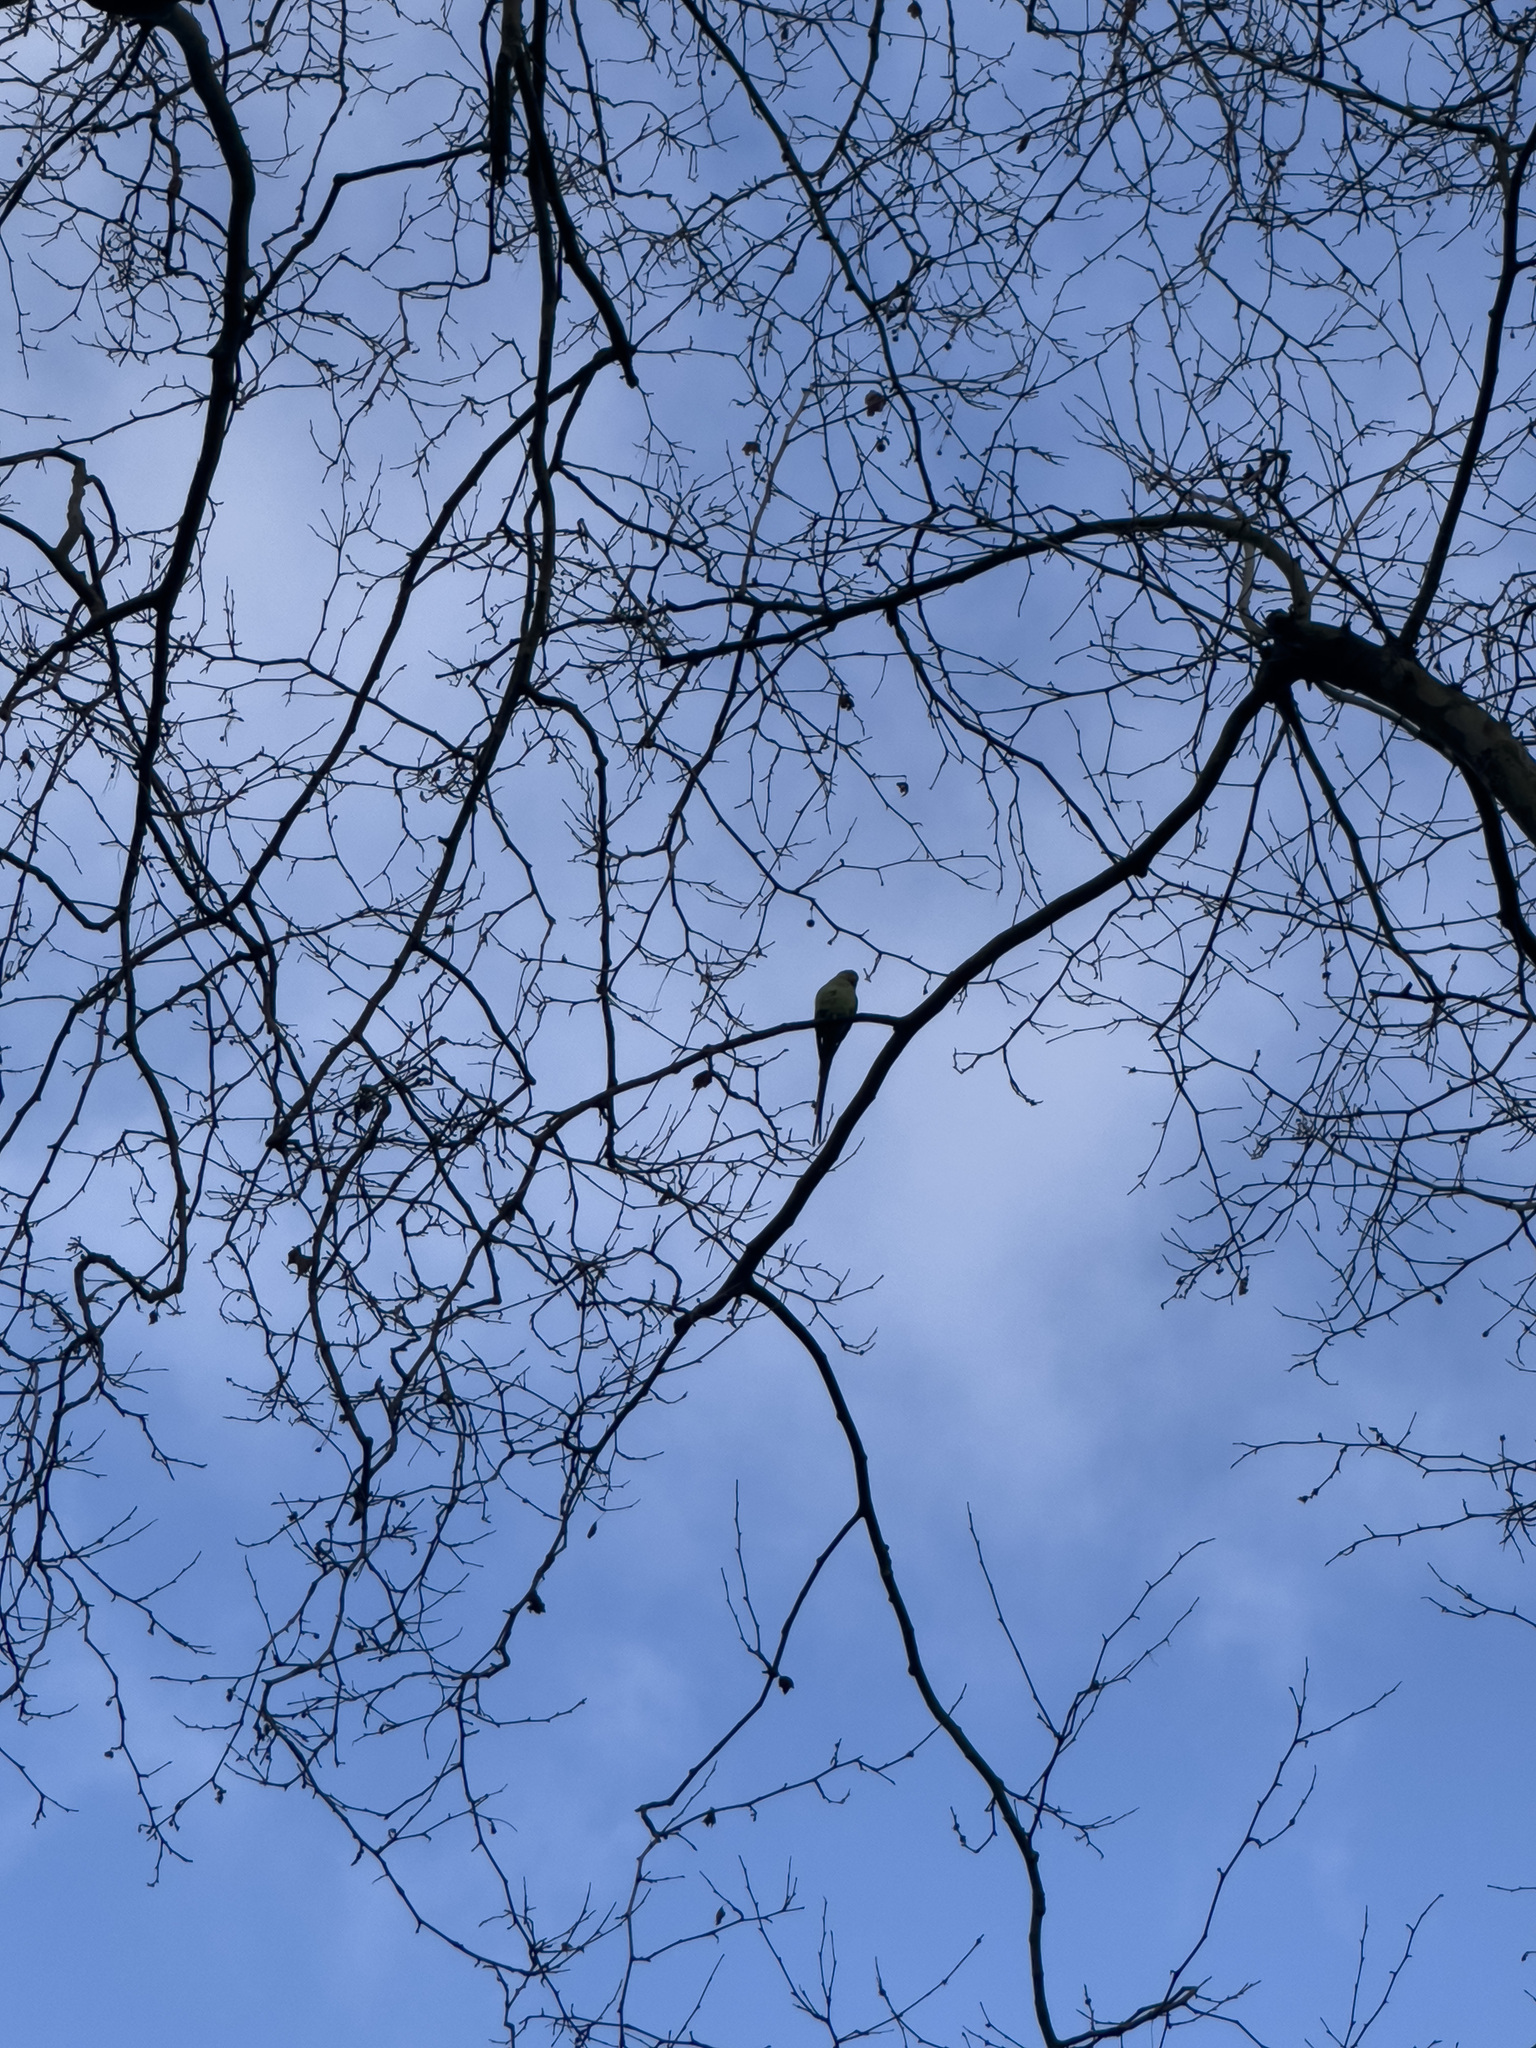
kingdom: Animalia
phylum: Chordata
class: Aves
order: Psittaciformes
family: Psittacidae
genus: Psittacula
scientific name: Psittacula krameri
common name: Rose-ringed parakeet
